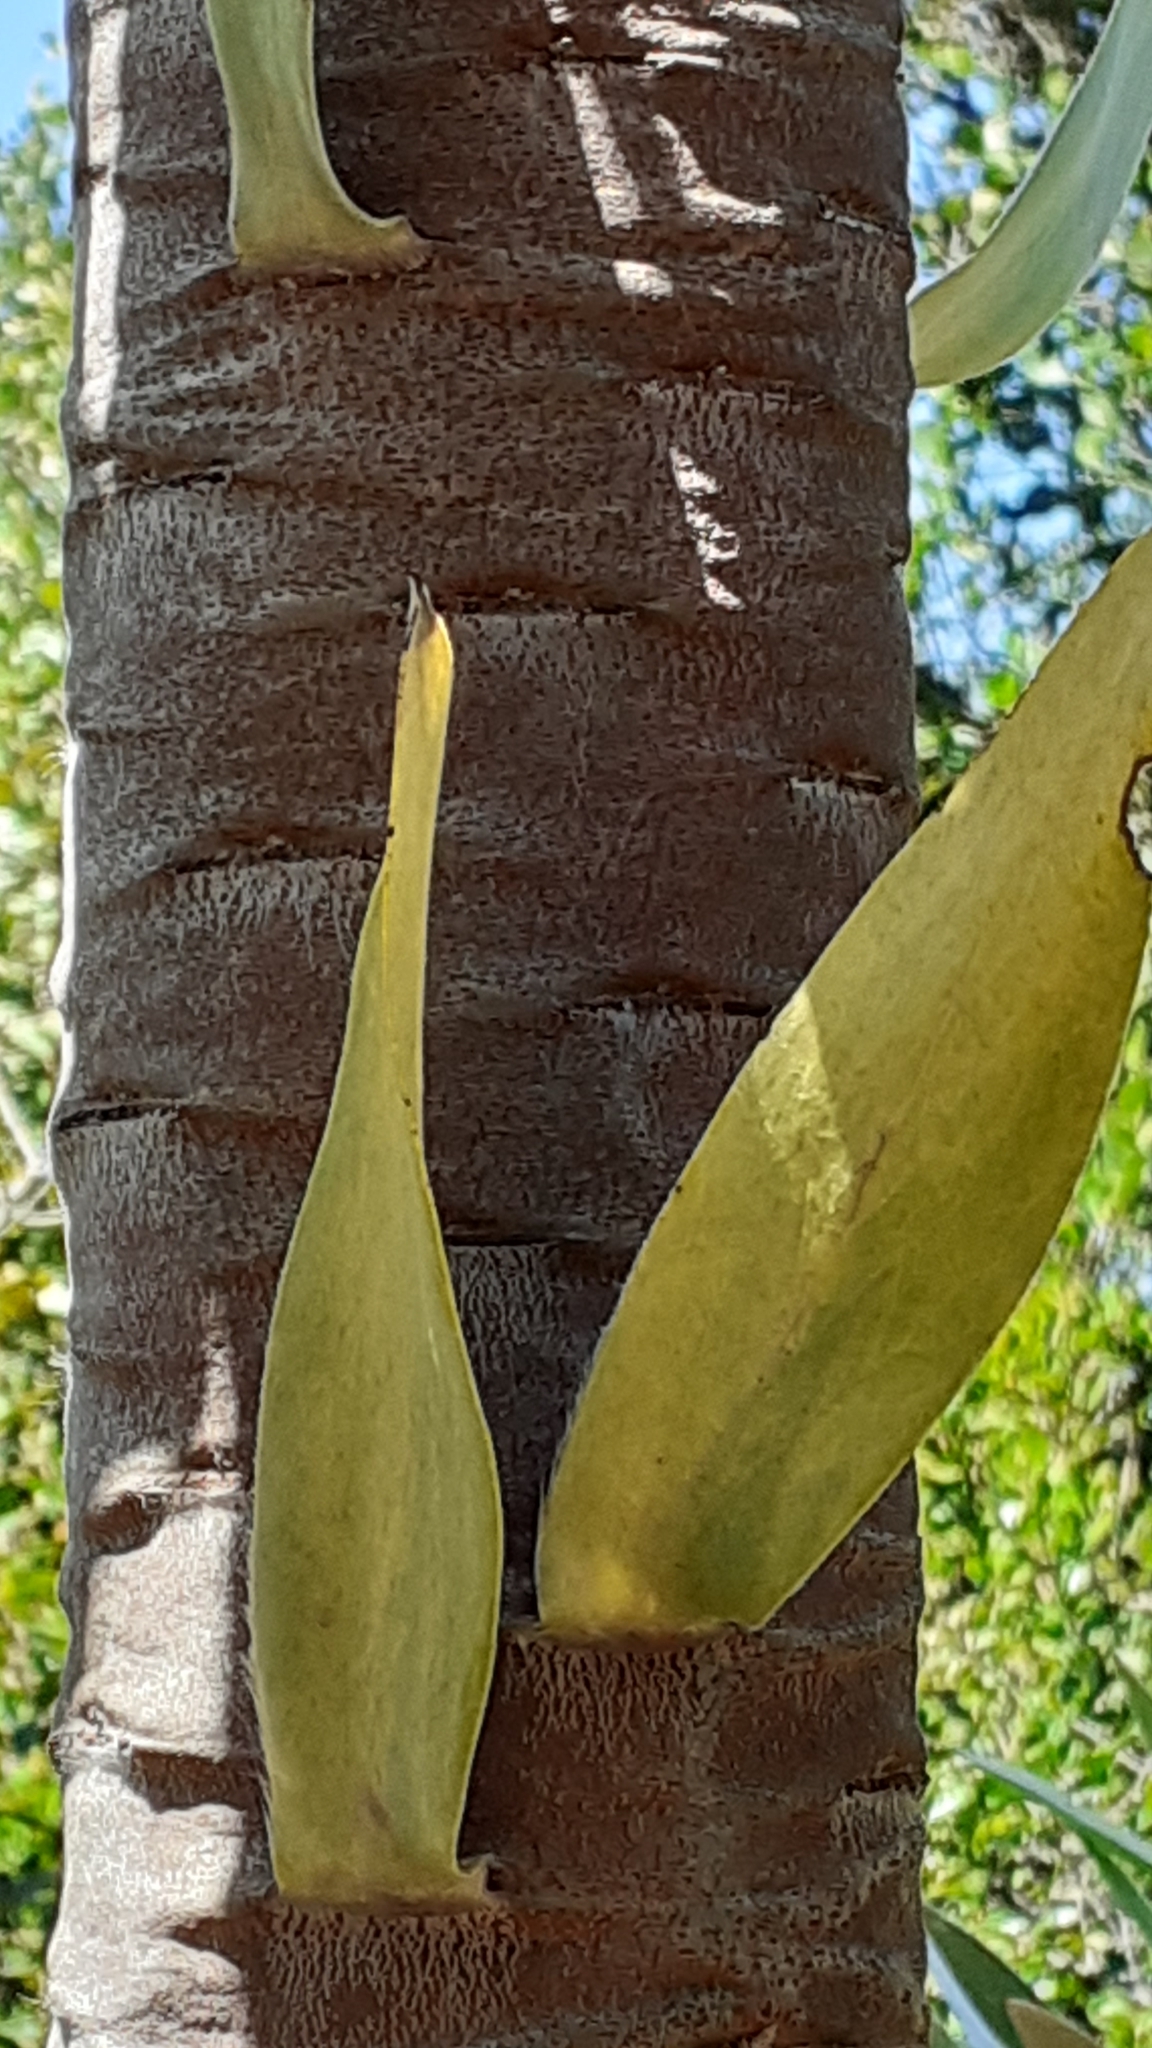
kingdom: Plantae
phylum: Tracheophyta
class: Magnoliopsida
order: Proteales
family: Proteaceae
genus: Leucadendron
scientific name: Leucadendron argenteum
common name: Cape silver tree
